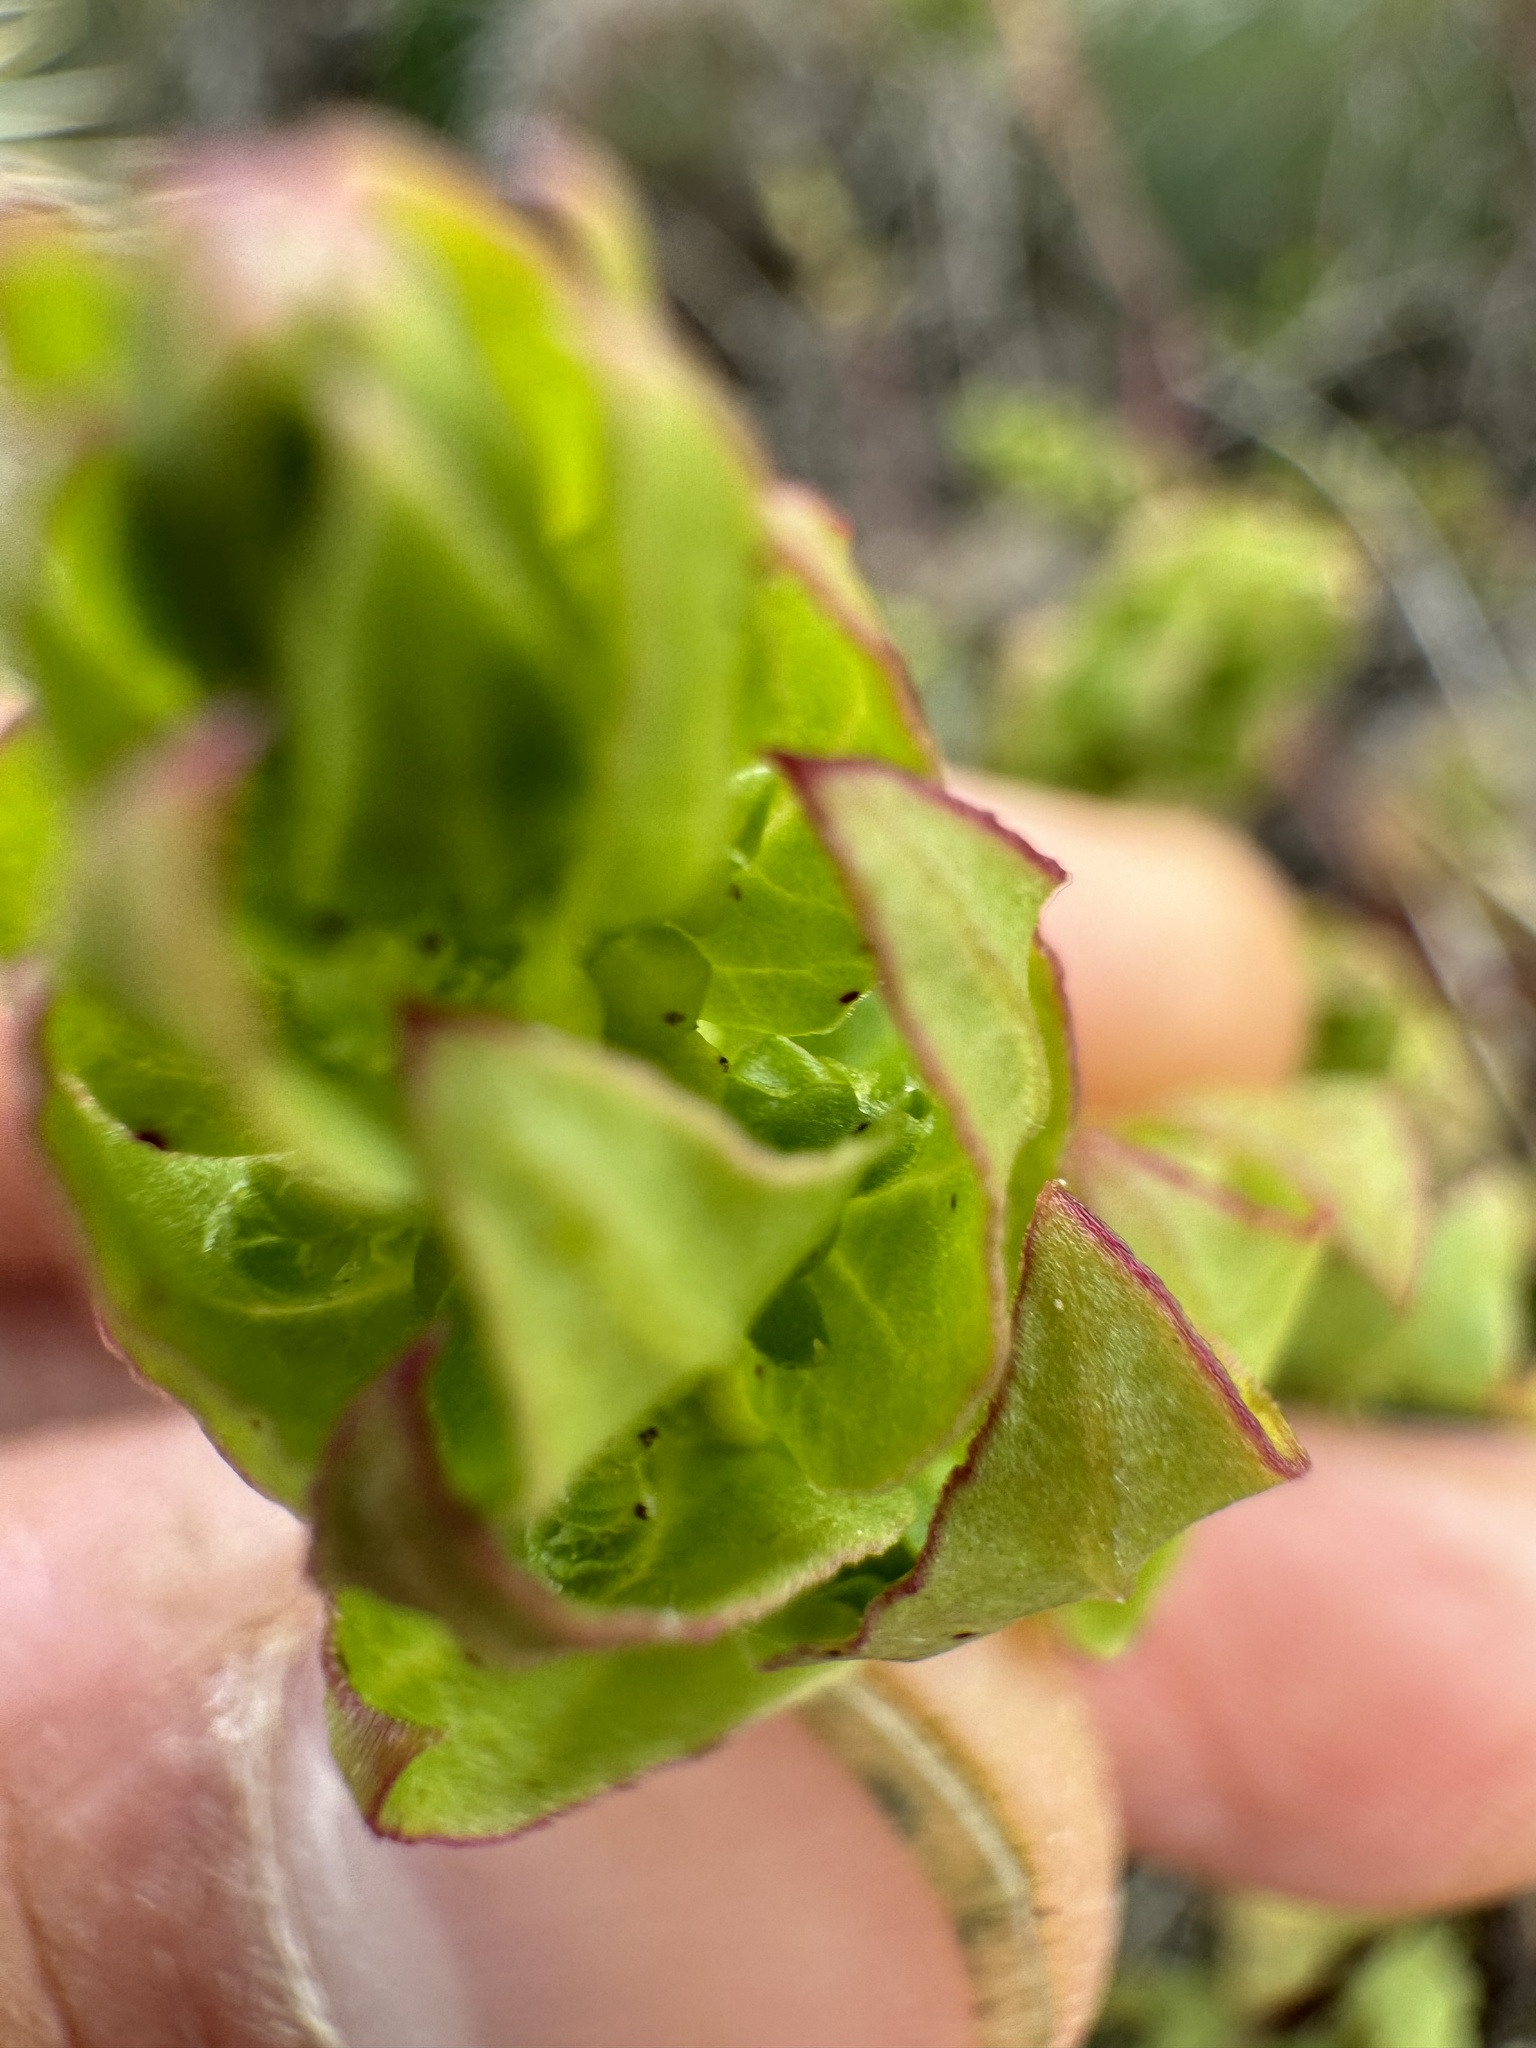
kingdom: Plantae
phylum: Tracheophyta
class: Magnoliopsida
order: Caryophyllales
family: Amaranthaceae
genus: Aphanisma
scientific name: Aphanisma blitoides
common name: Aphanisma
